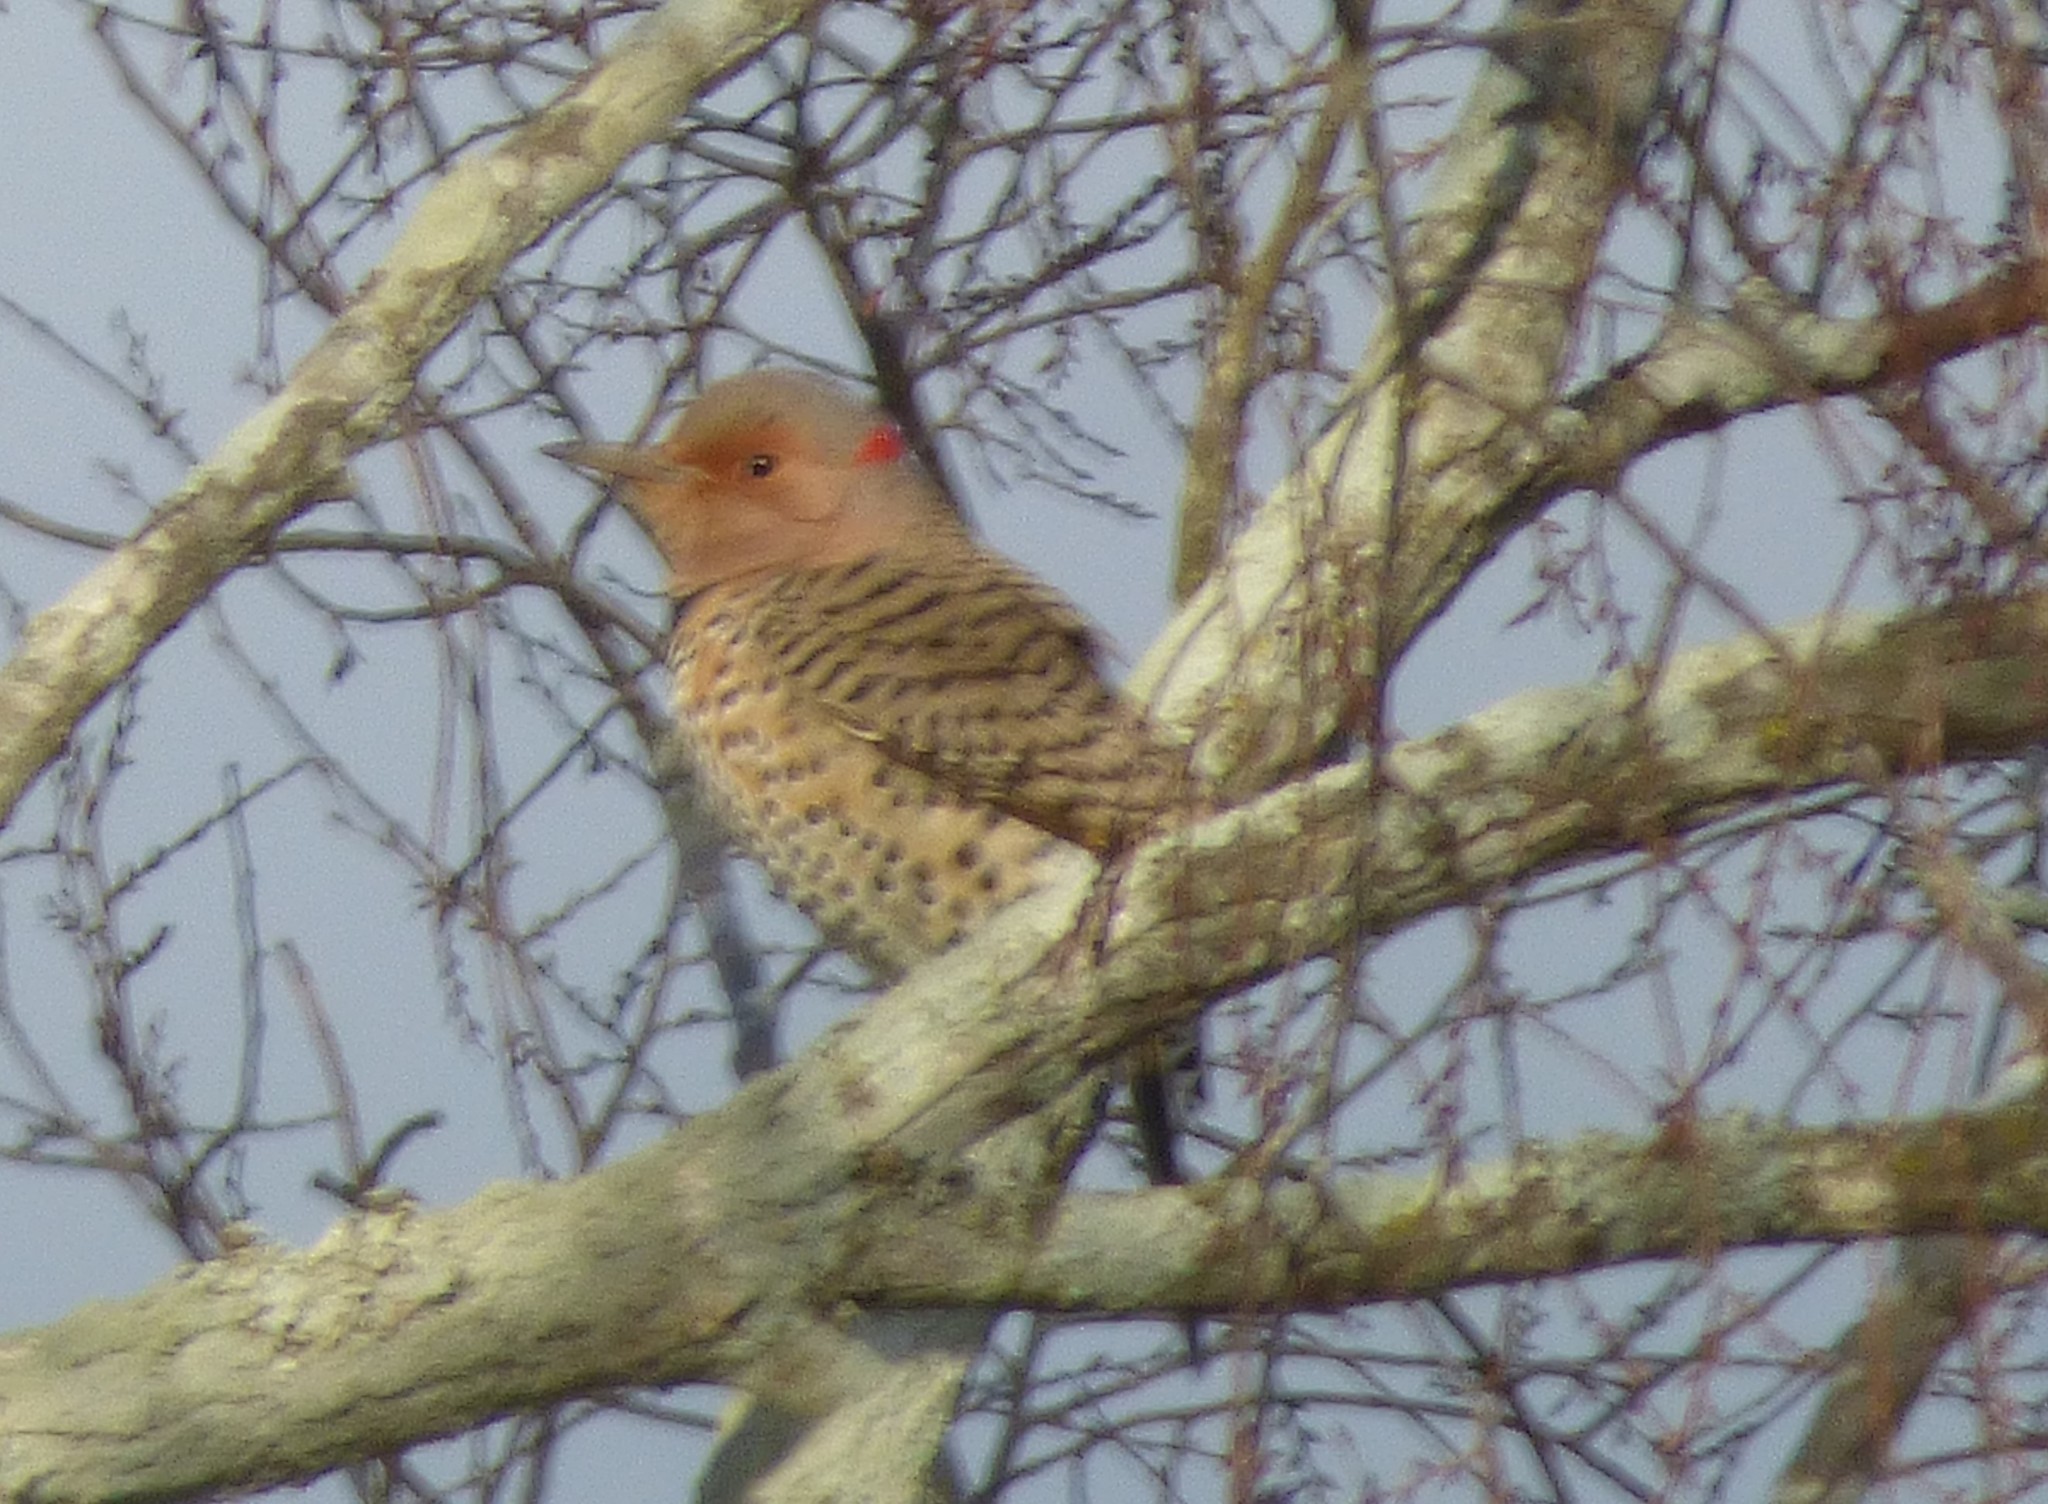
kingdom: Animalia
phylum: Chordata
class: Aves
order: Piciformes
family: Picidae
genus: Colaptes
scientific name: Colaptes auratus
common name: Northern flicker
